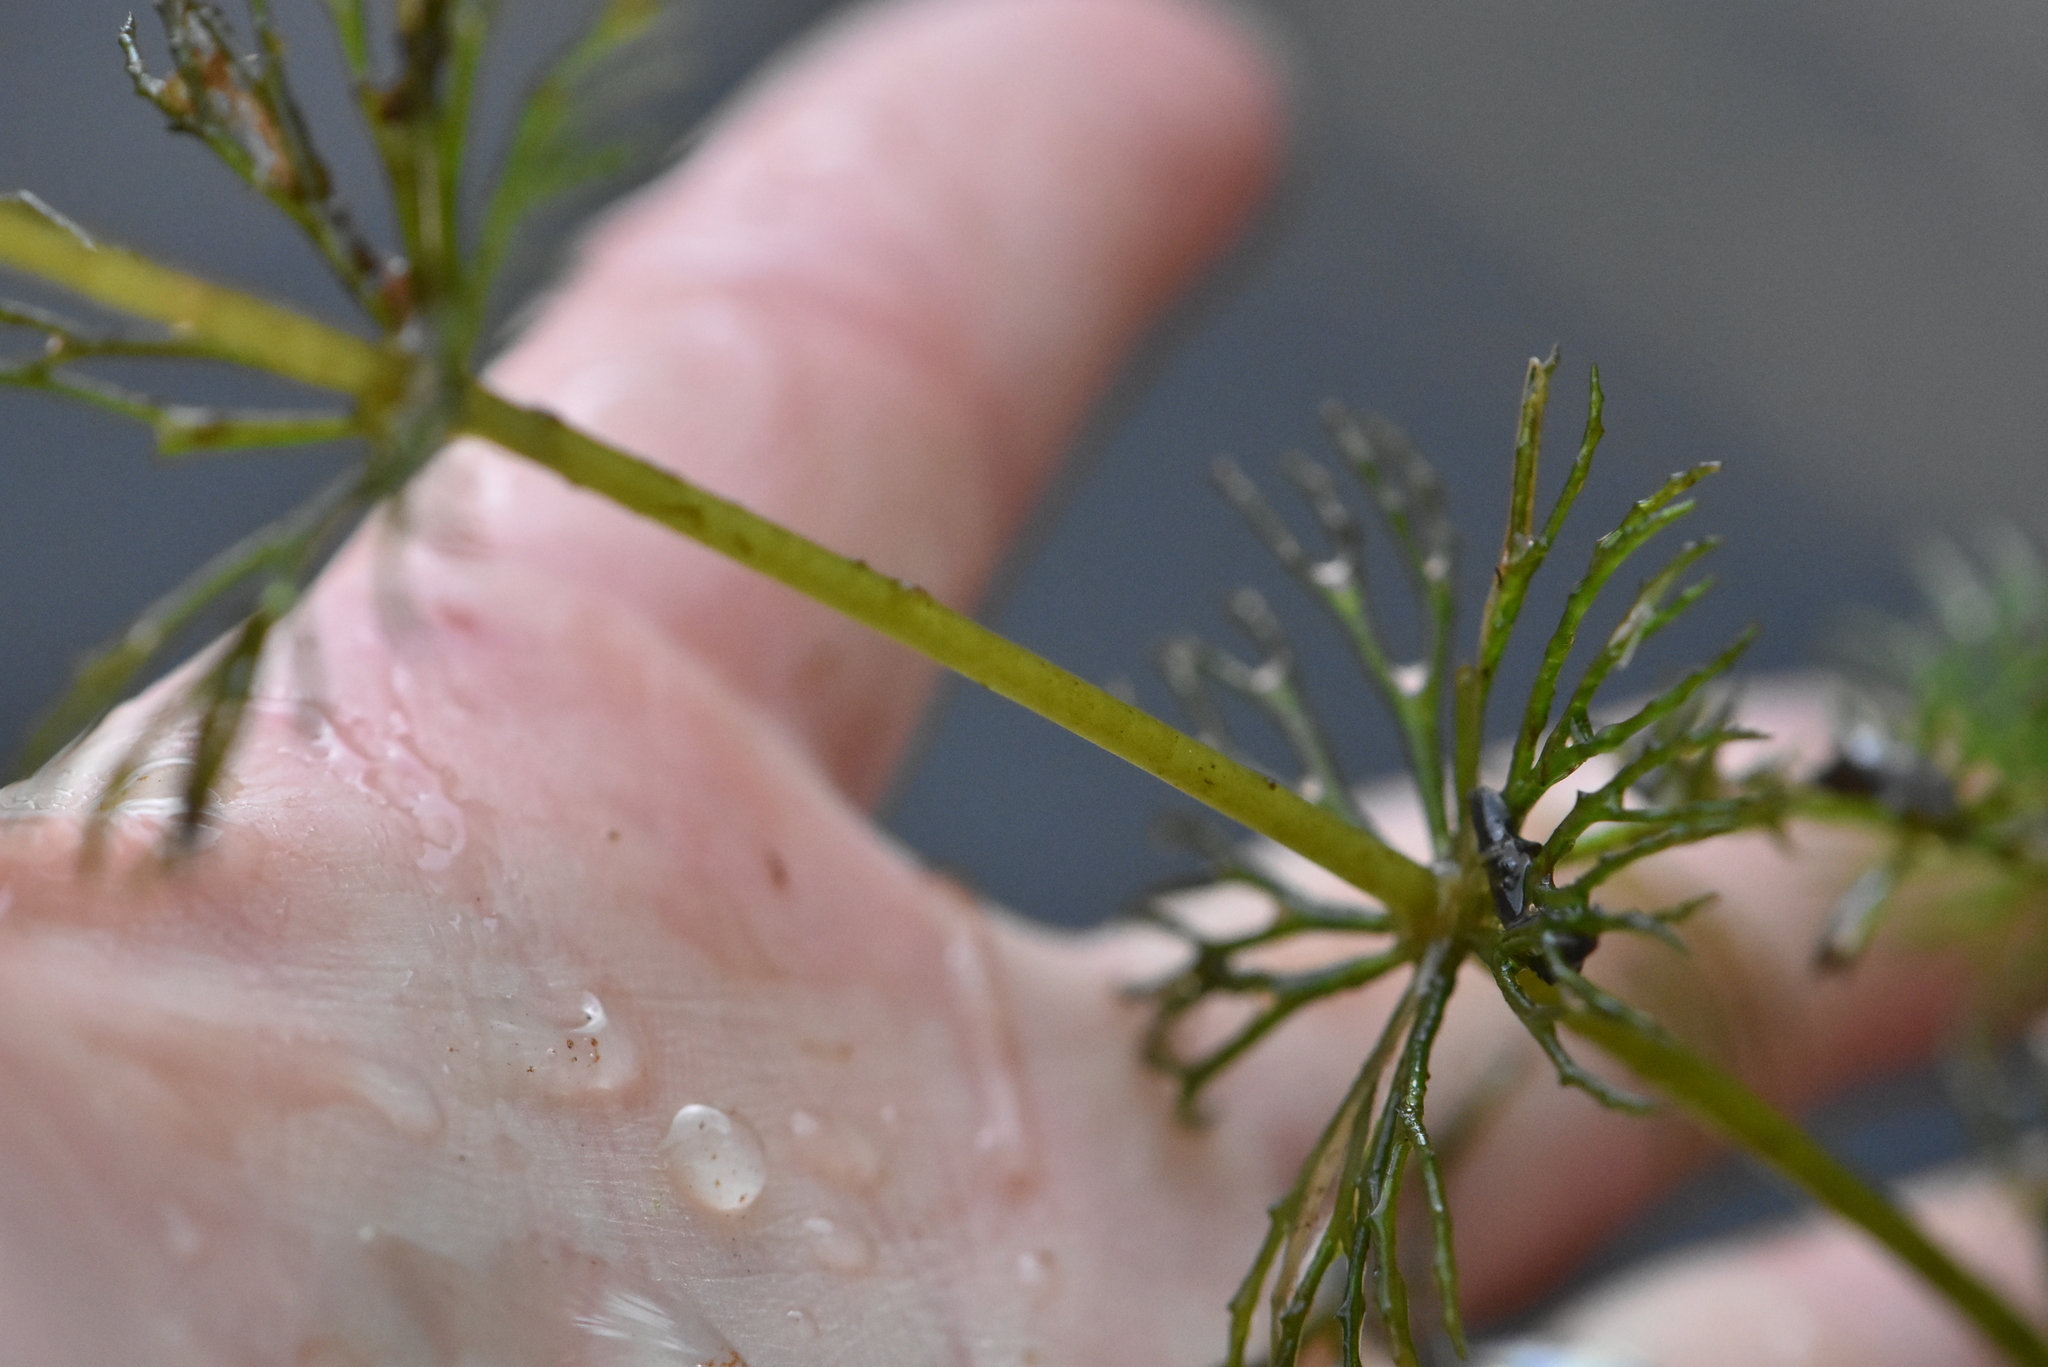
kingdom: Plantae
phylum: Tracheophyta
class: Magnoliopsida
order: Ceratophyllales
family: Ceratophyllaceae
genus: Ceratophyllum
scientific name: Ceratophyllum demersum
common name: Rigid hornwort
